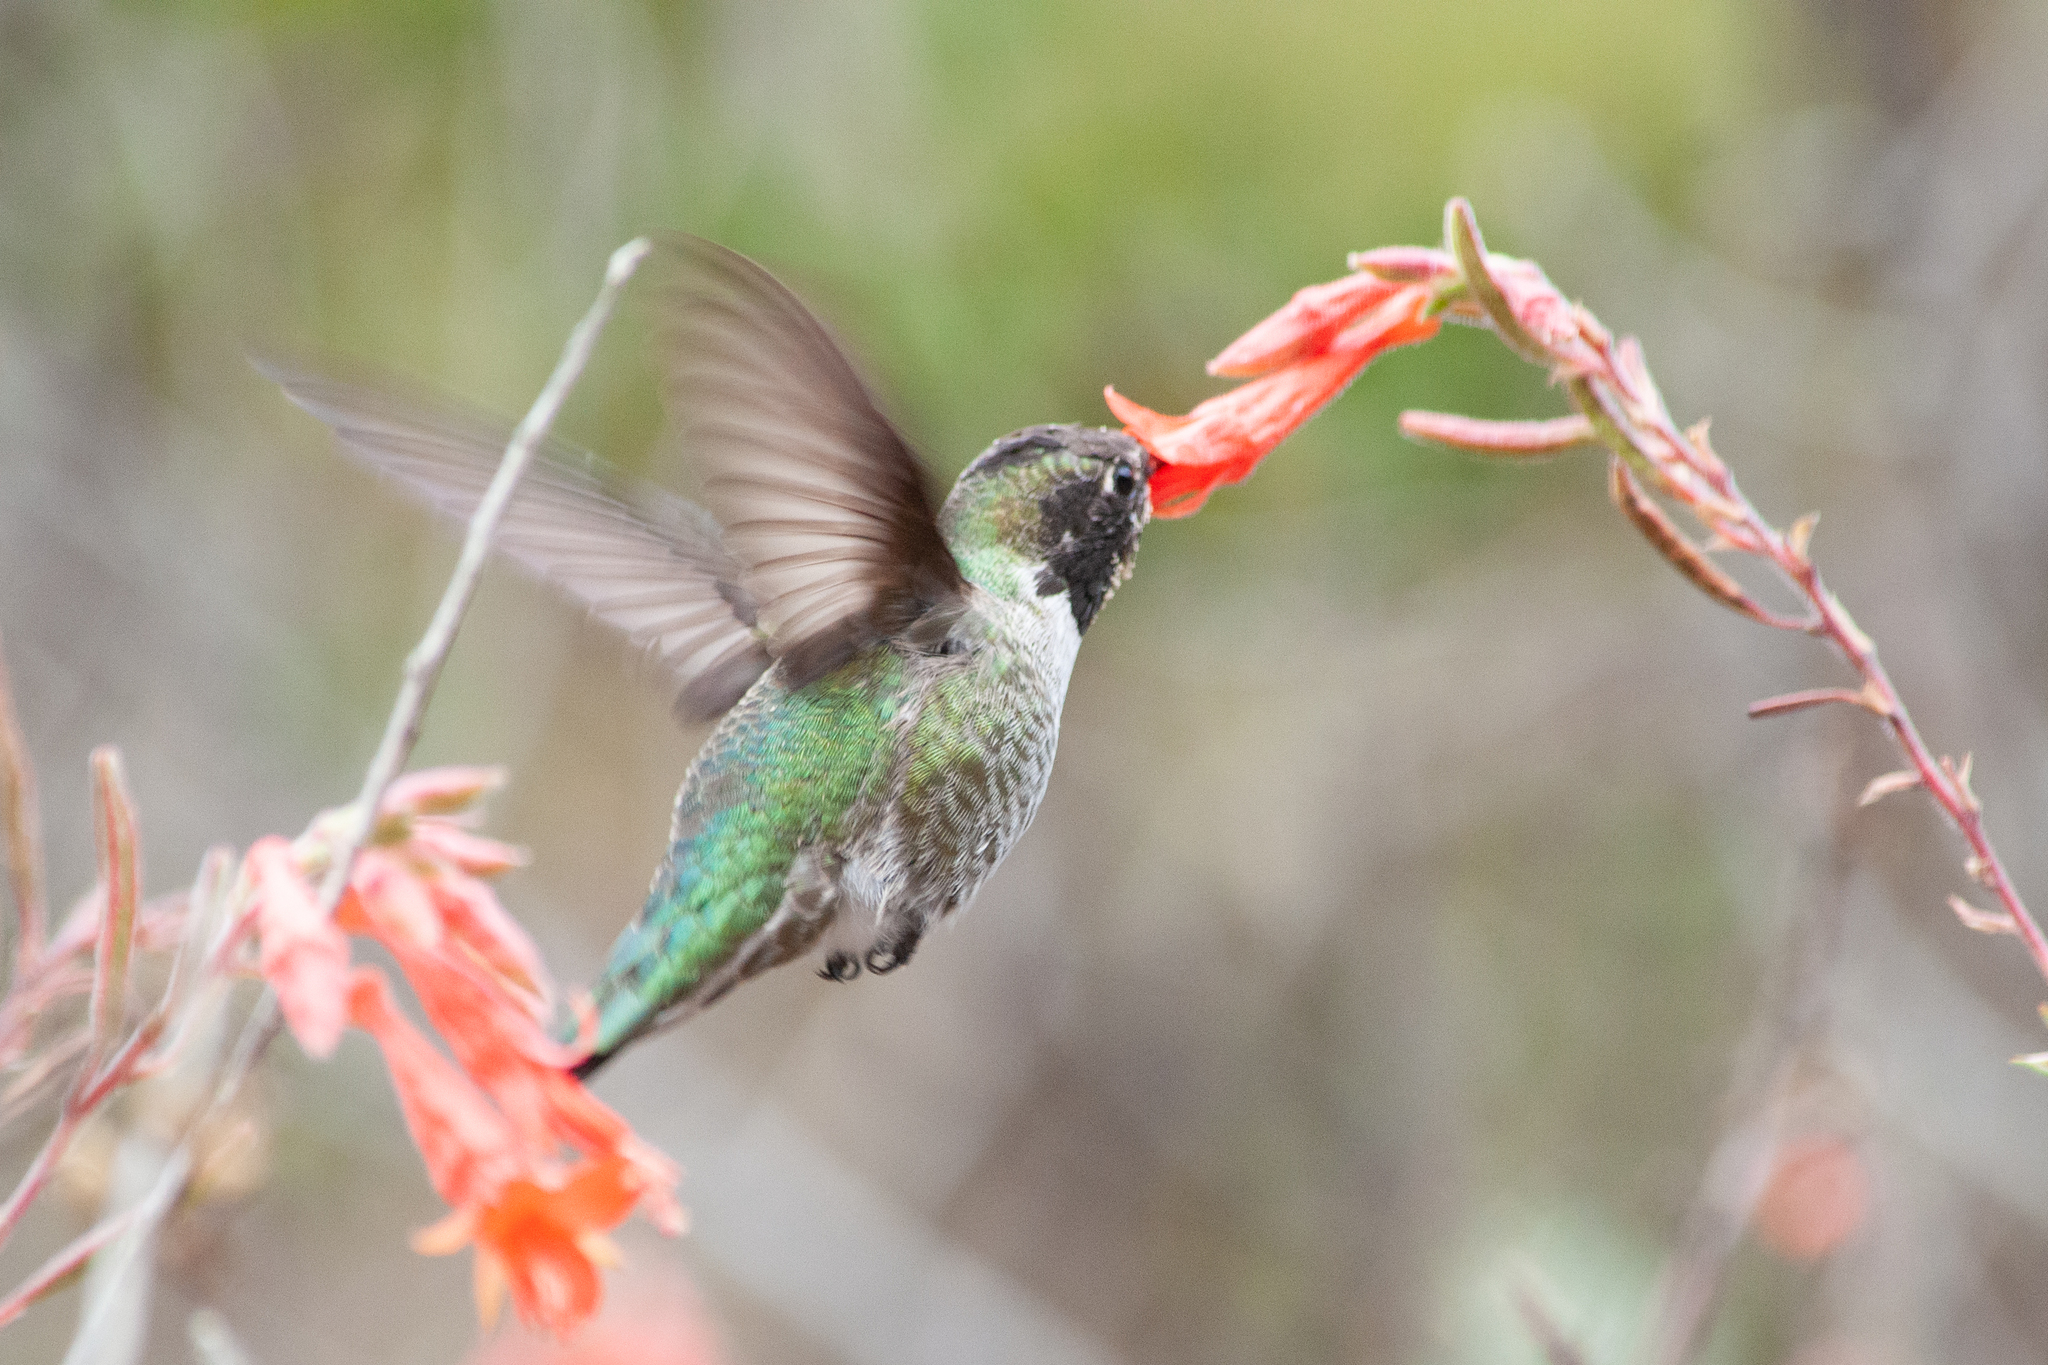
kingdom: Animalia
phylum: Chordata
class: Aves
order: Apodiformes
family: Trochilidae
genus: Calypte
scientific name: Calypte anna
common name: Anna's hummingbird
